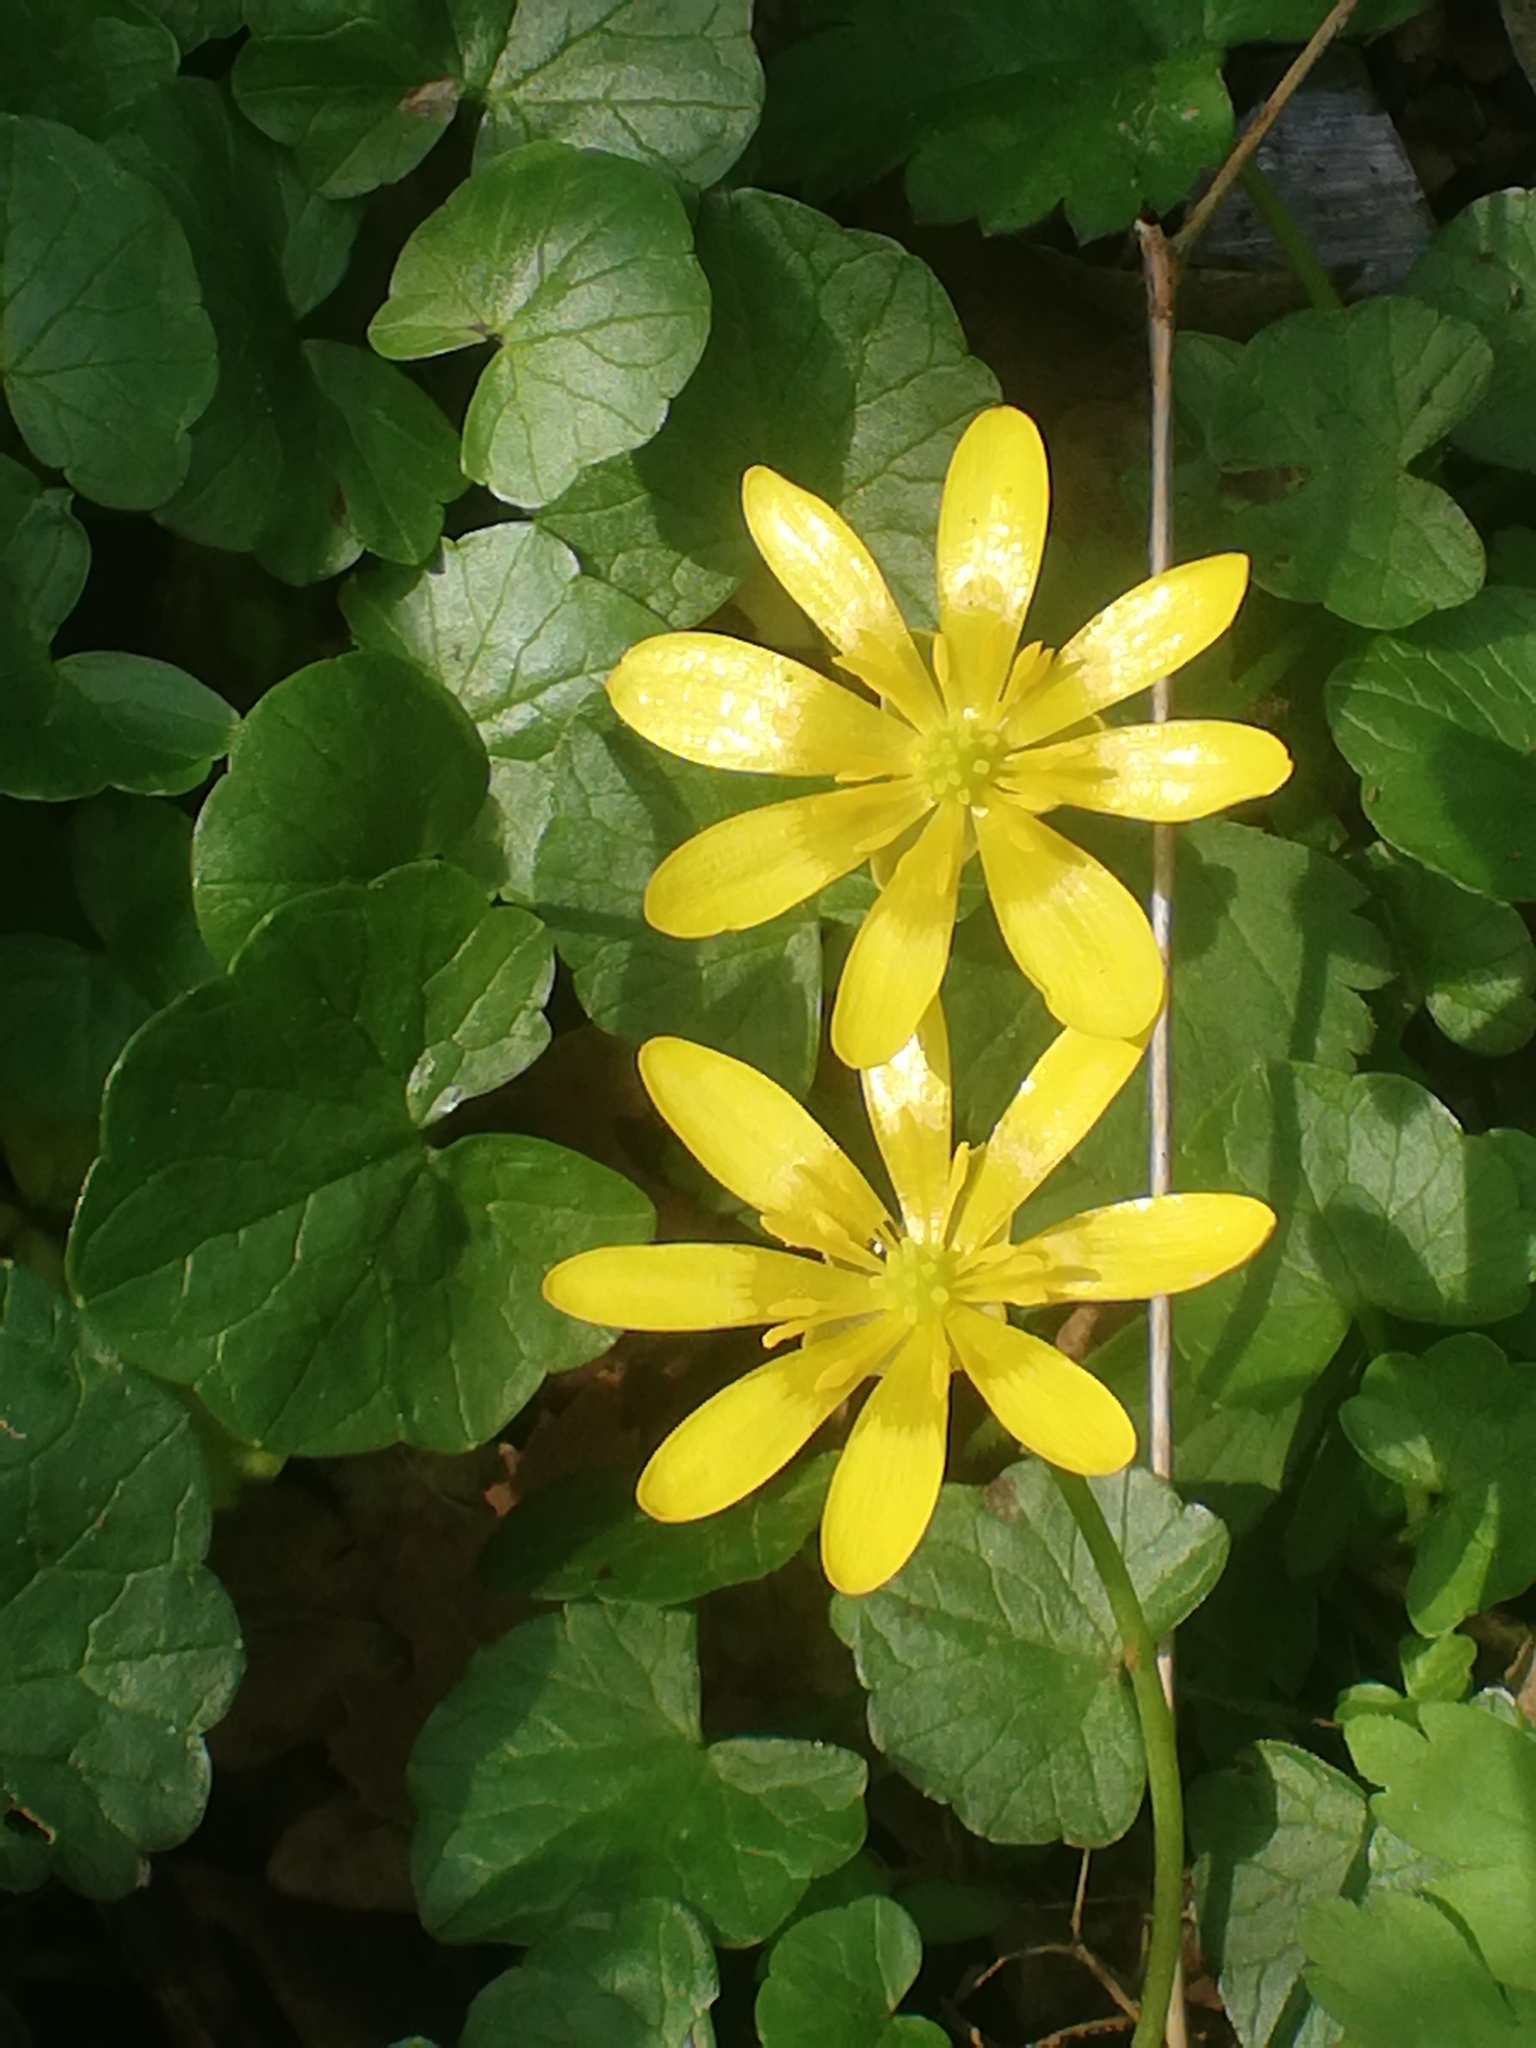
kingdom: Plantae
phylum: Tracheophyta
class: Magnoliopsida
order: Ranunculales
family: Ranunculaceae
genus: Ficaria
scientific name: Ficaria verna
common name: Lesser celandine
